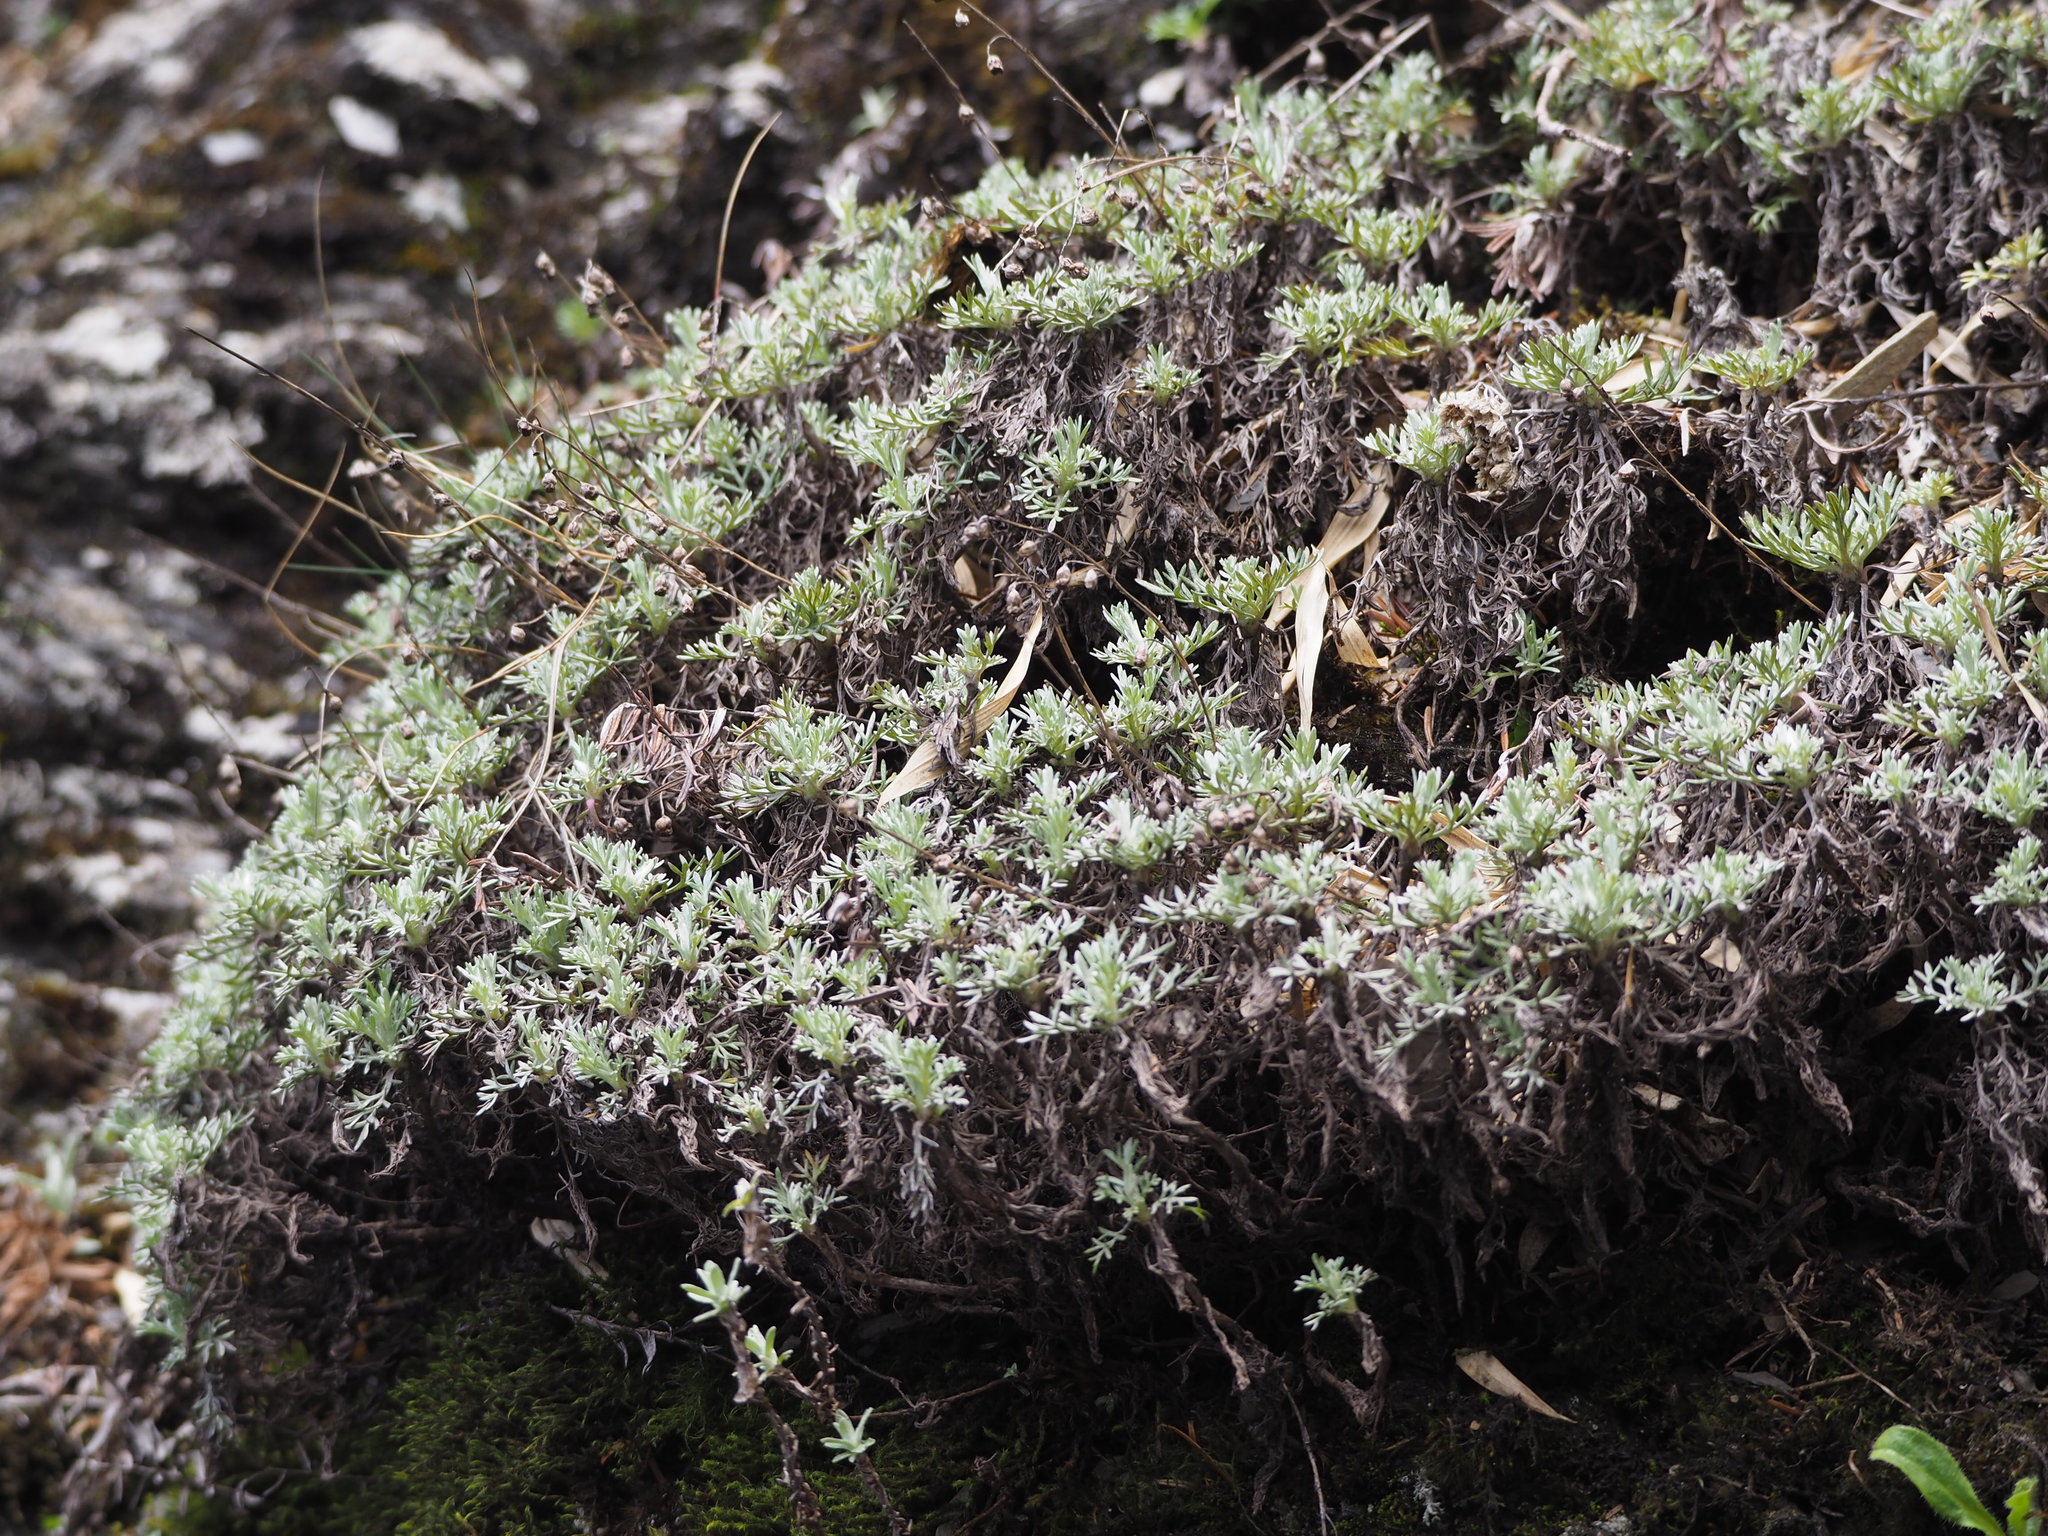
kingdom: Plantae
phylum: Tracheophyta
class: Magnoliopsida
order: Asterales
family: Asteraceae
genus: Artemisia
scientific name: Artemisia kawakamii
